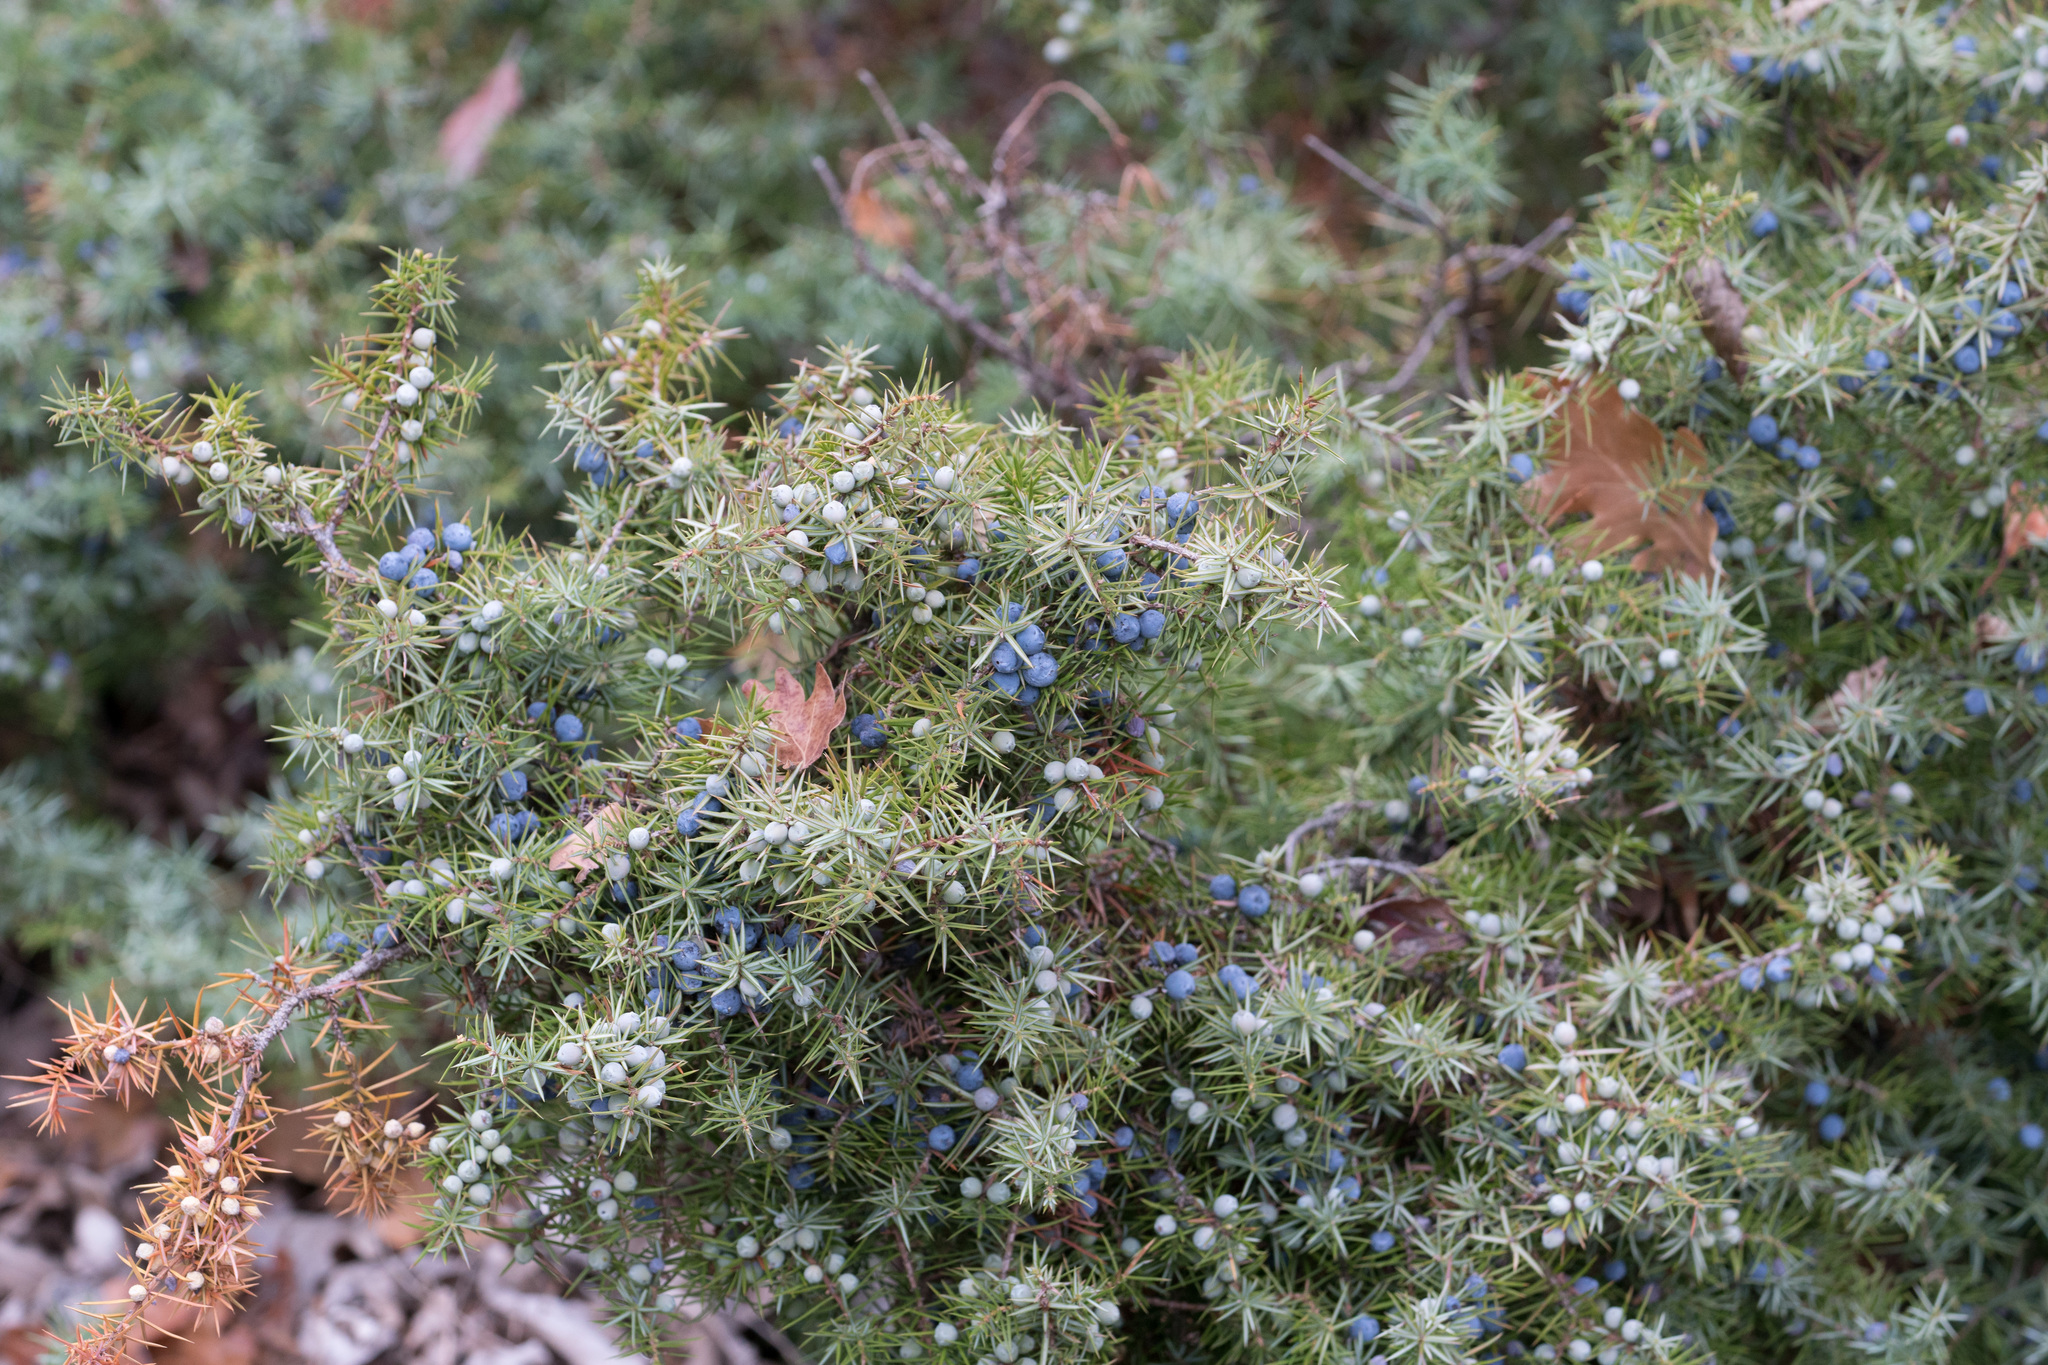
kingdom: Plantae
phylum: Tracheophyta
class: Pinopsida
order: Pinales
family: Cupressaceae
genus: Juniperus
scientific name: Juniperus communis
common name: Common juniper
